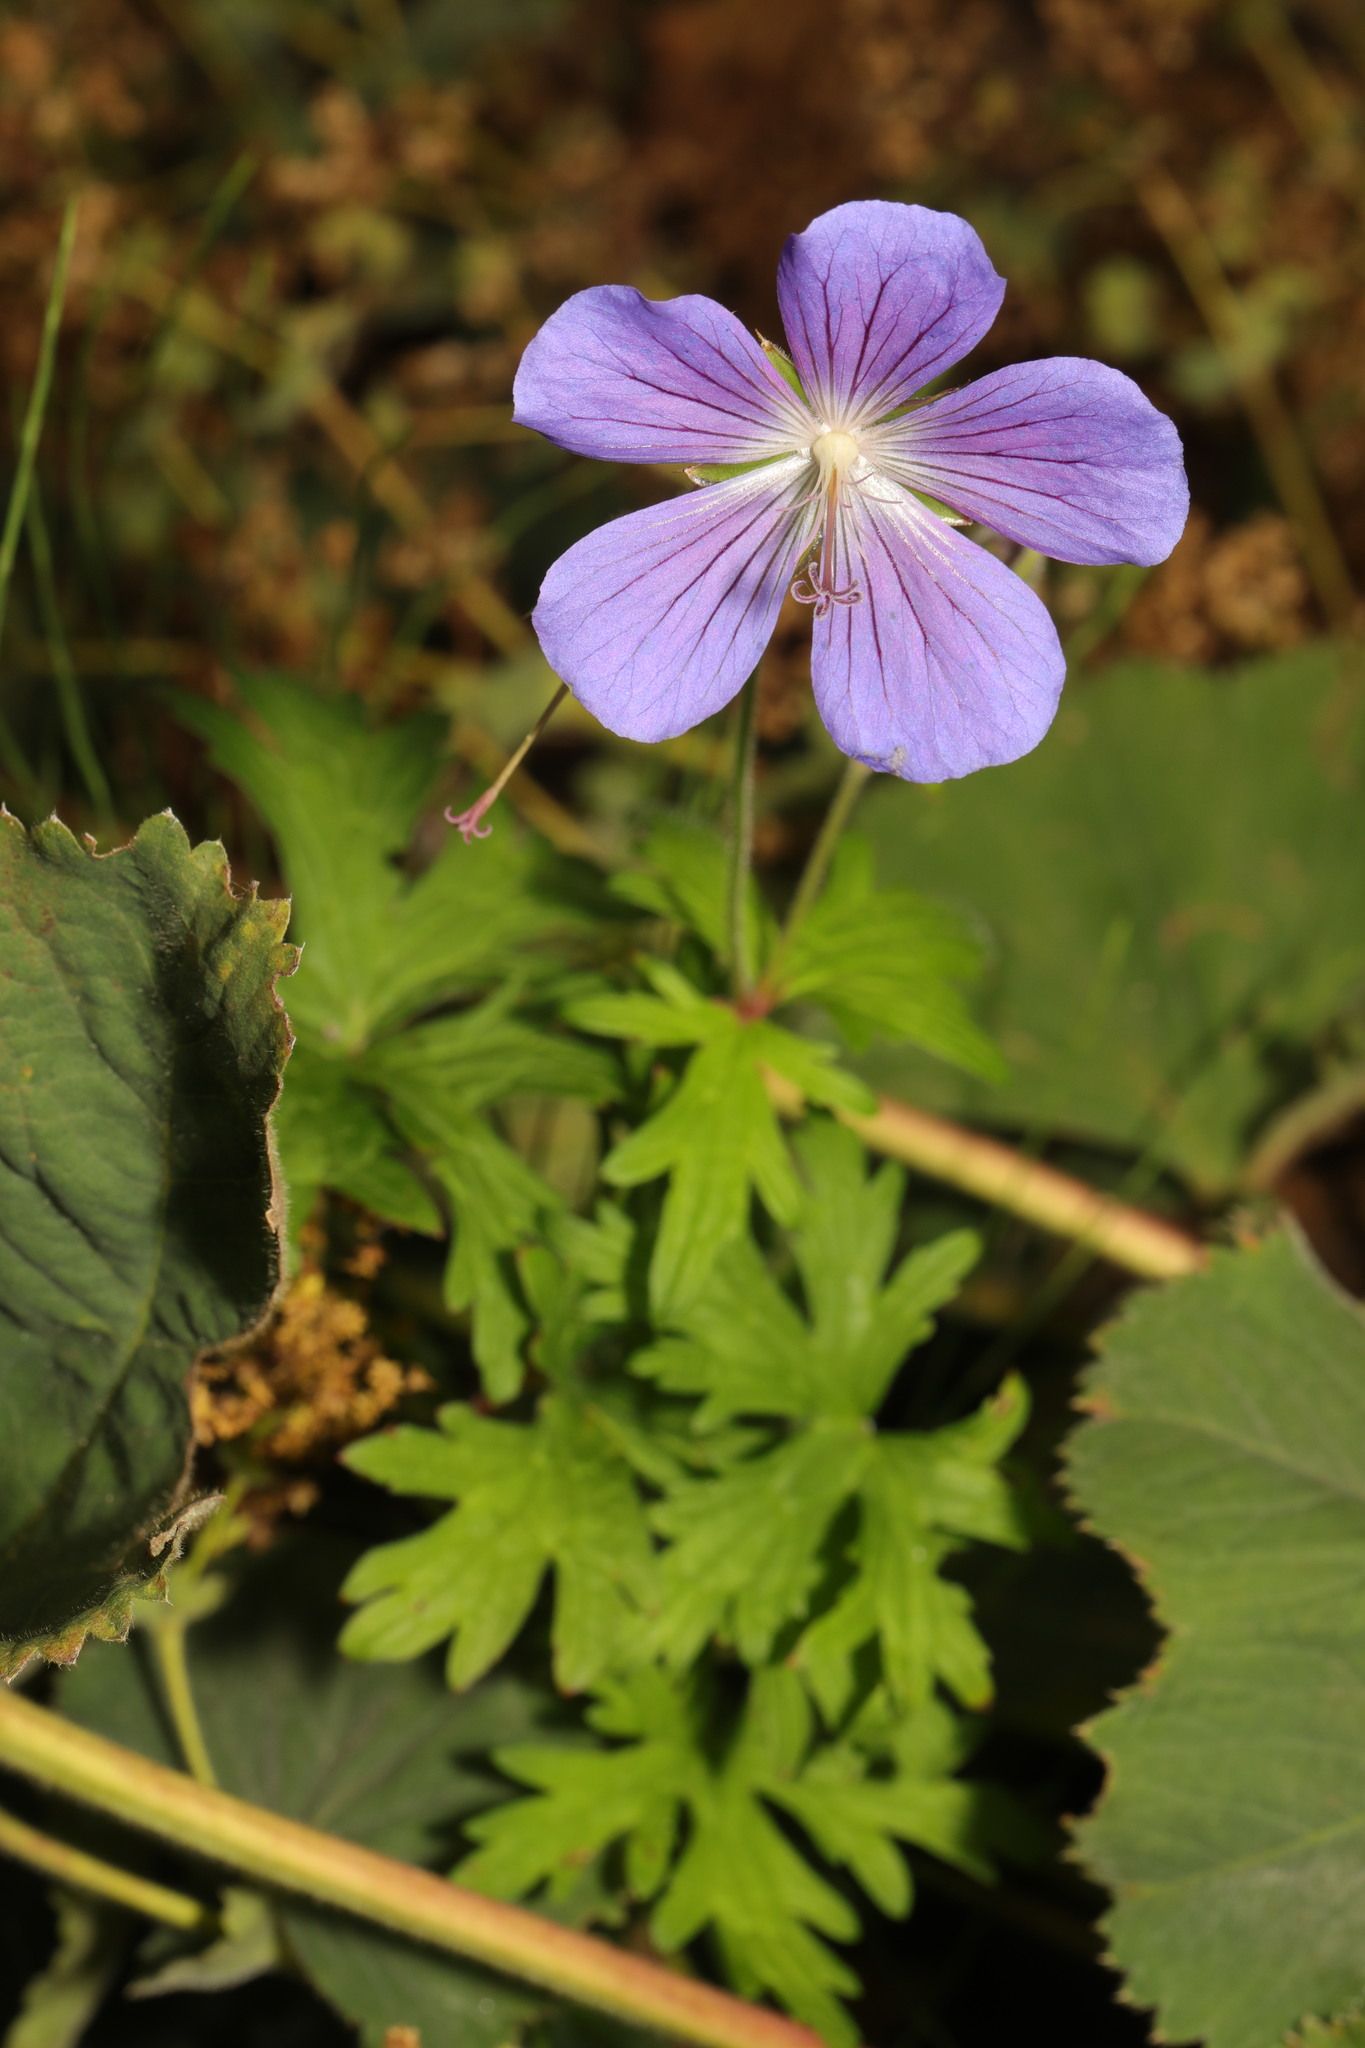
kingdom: Plantae
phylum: Tracheophyta
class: Magnoliopsida
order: Geraniales
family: Geraniaceae
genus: Geranium
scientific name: Geranium pratense
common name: Meadow crane's-bill
